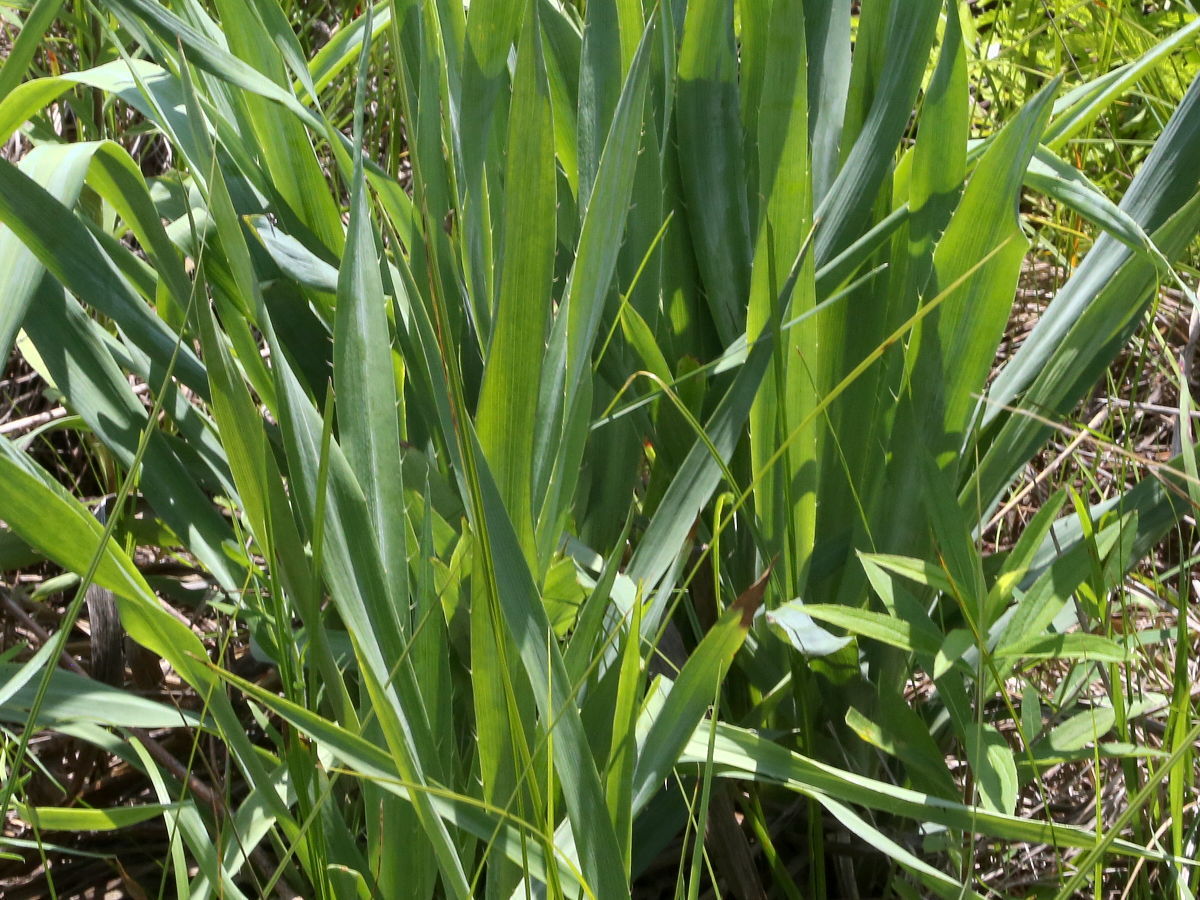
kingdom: Plantae
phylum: Tracheophyta
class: Magnoliopsida
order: Apiales
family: Apiaceae
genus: Eryngium
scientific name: Eryngium yuccifolium
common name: Button eryngo
